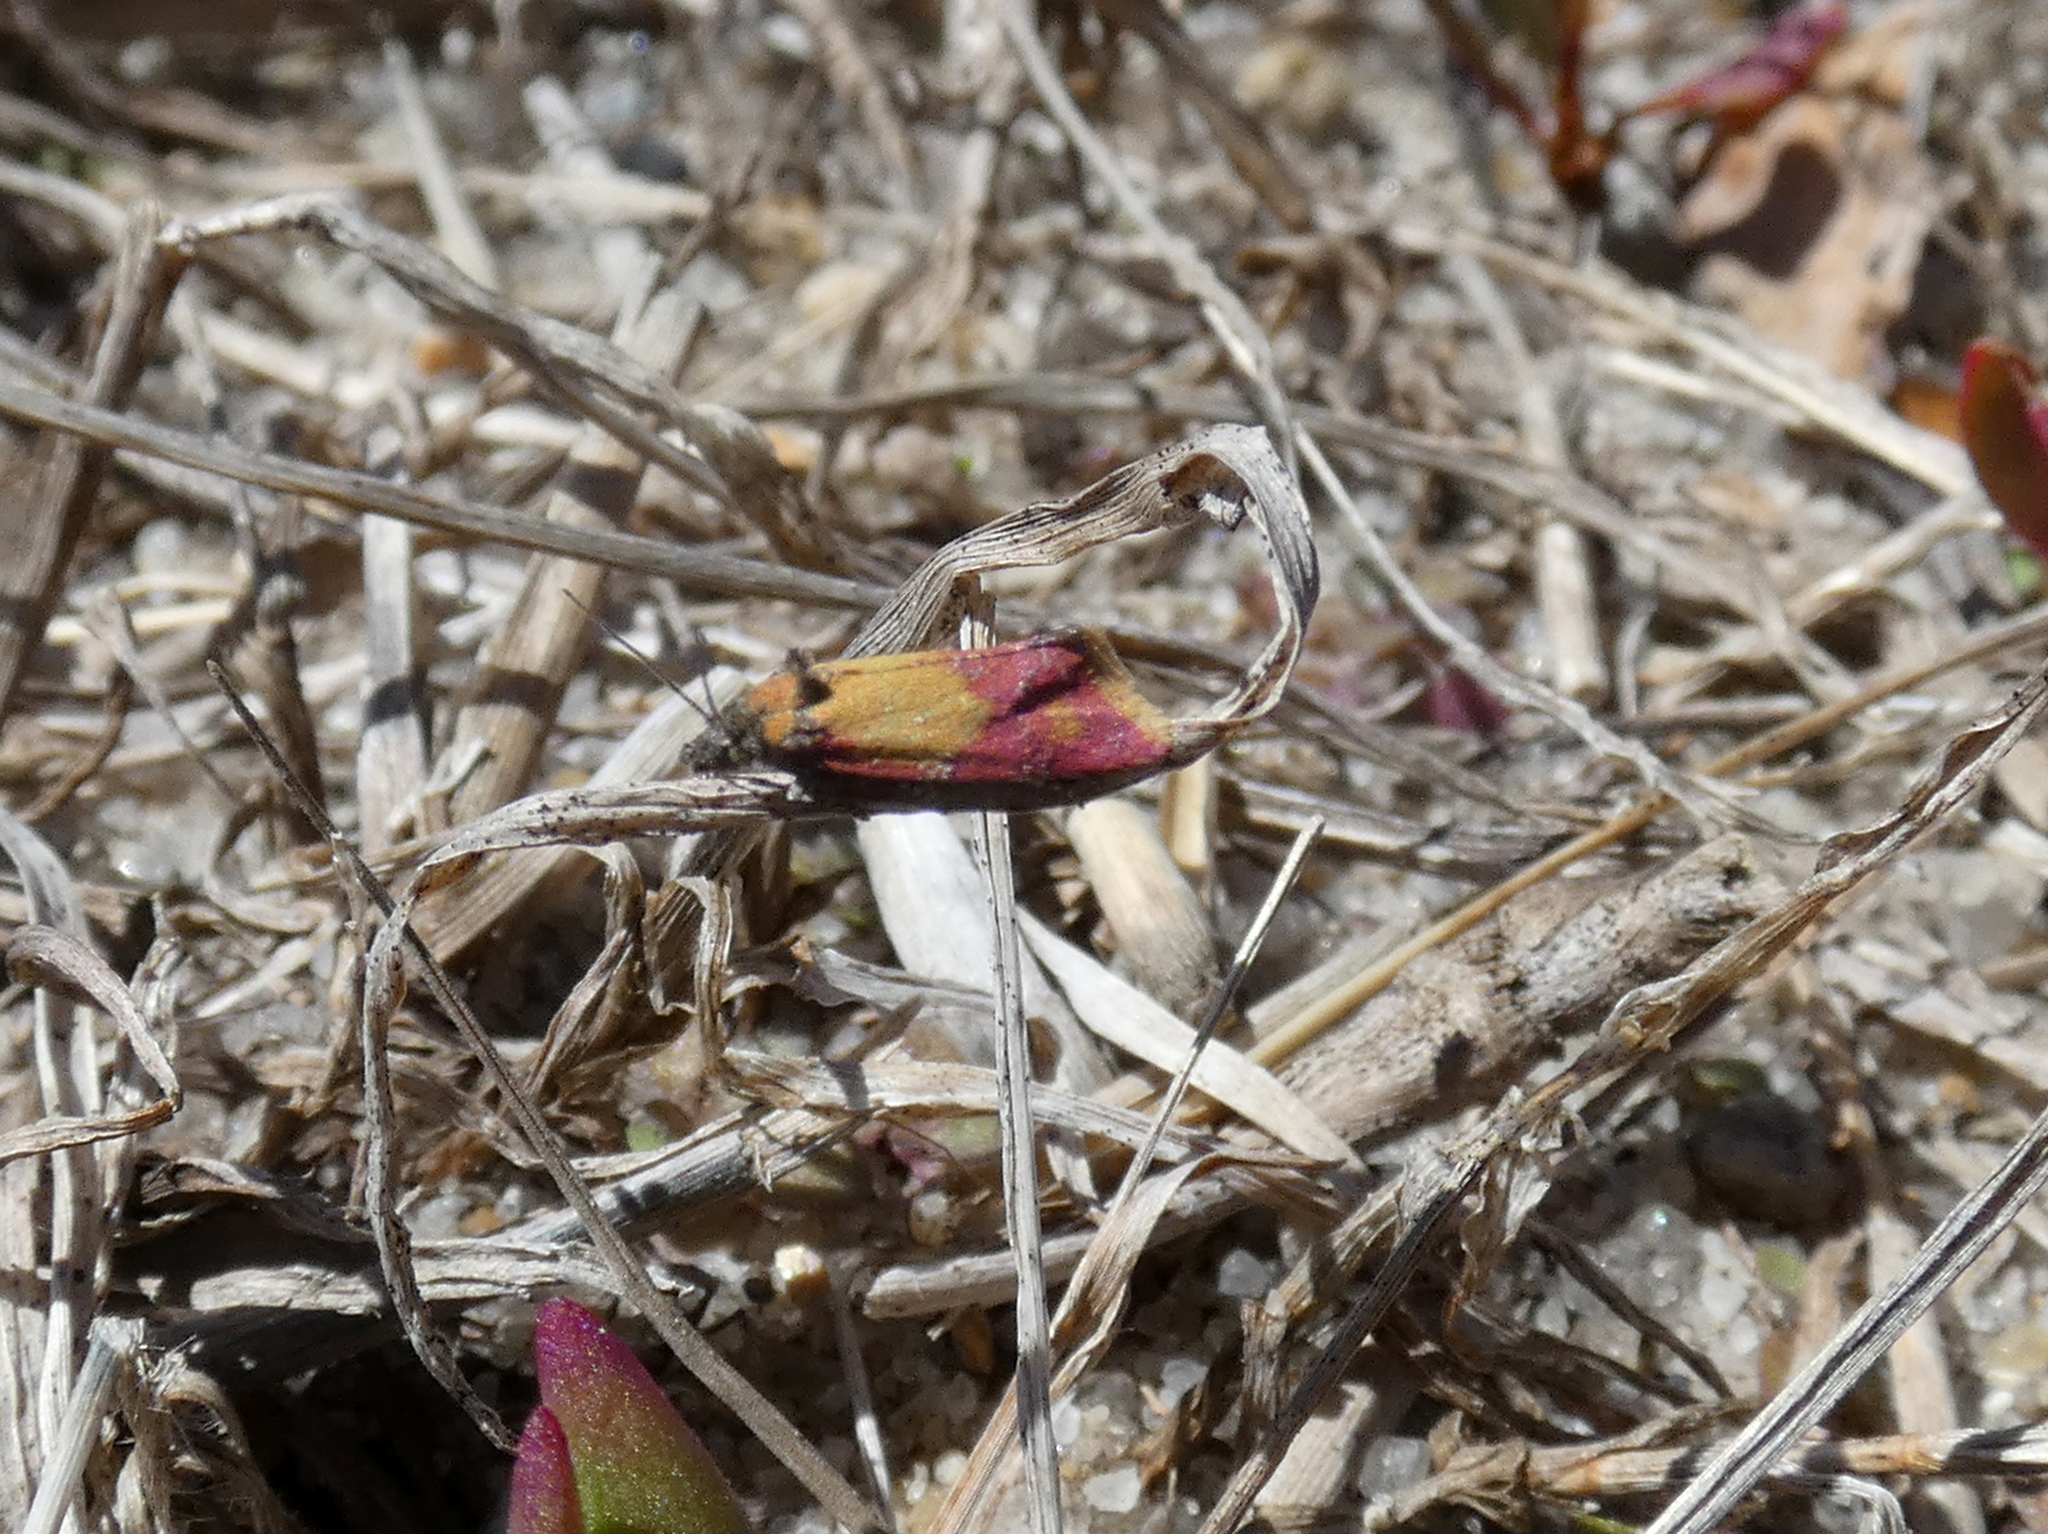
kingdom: Animalia
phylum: Arthropoda
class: Insecta
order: Lepidoptera
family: Tortricidae
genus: Conchylis
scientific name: Conchylis oenotherana
